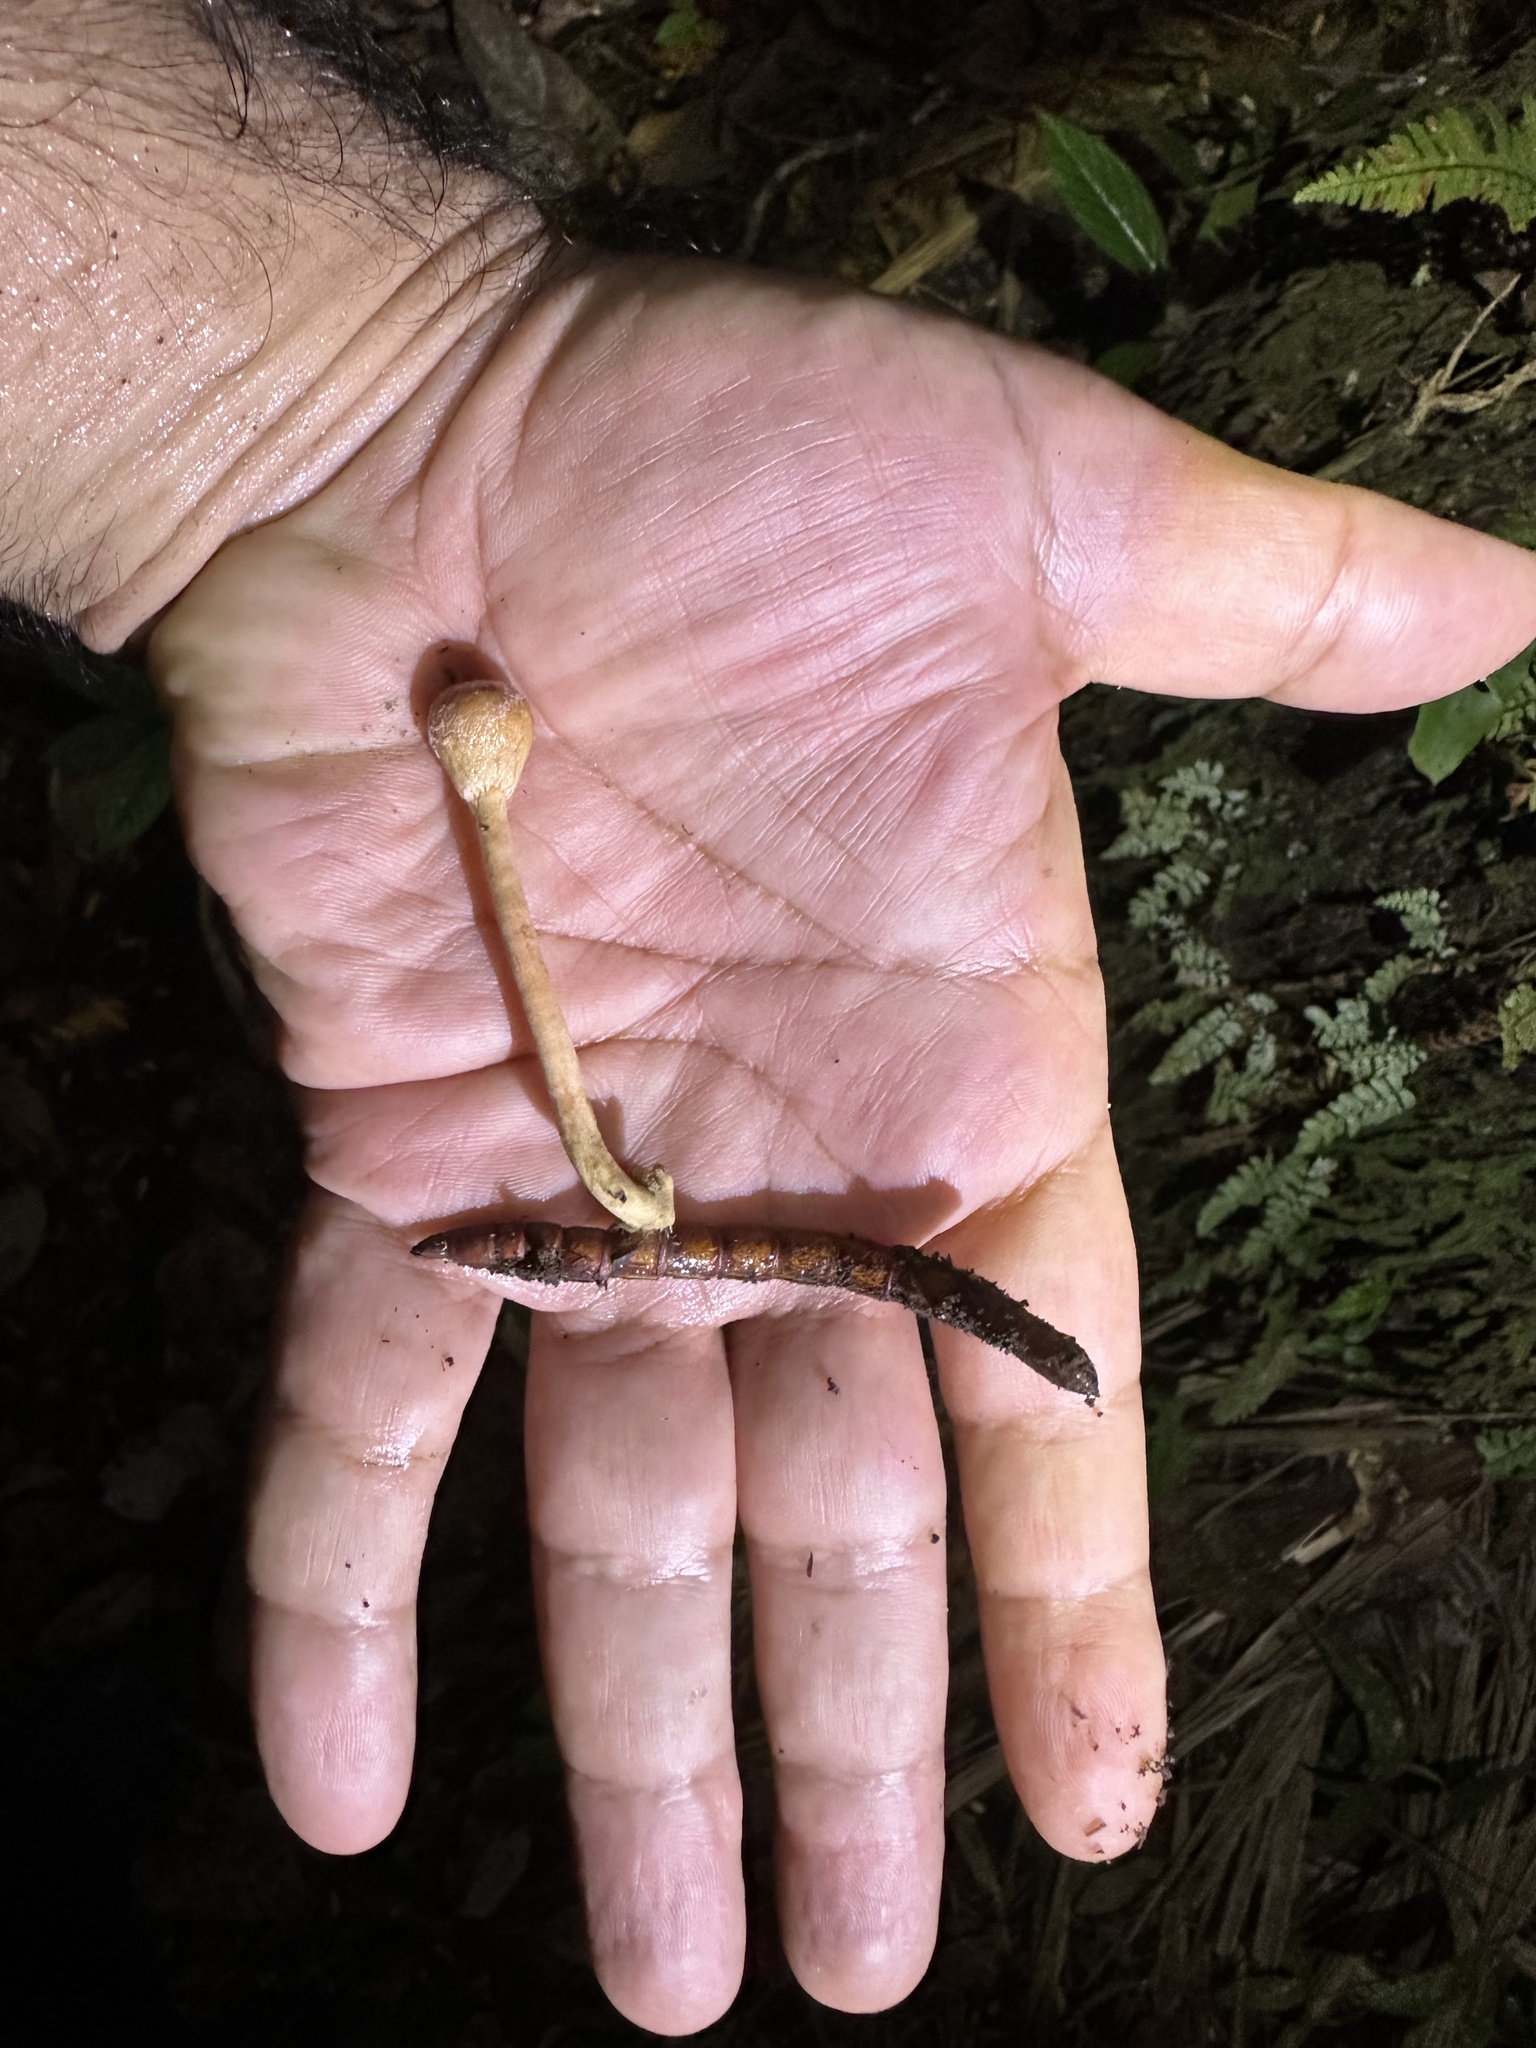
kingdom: Fungi
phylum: Ascomycota
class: Sordariomycetes
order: Hypocreales
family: Ophiocordycipitaceae
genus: Paraisaria
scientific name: Paraisaria gracilis
